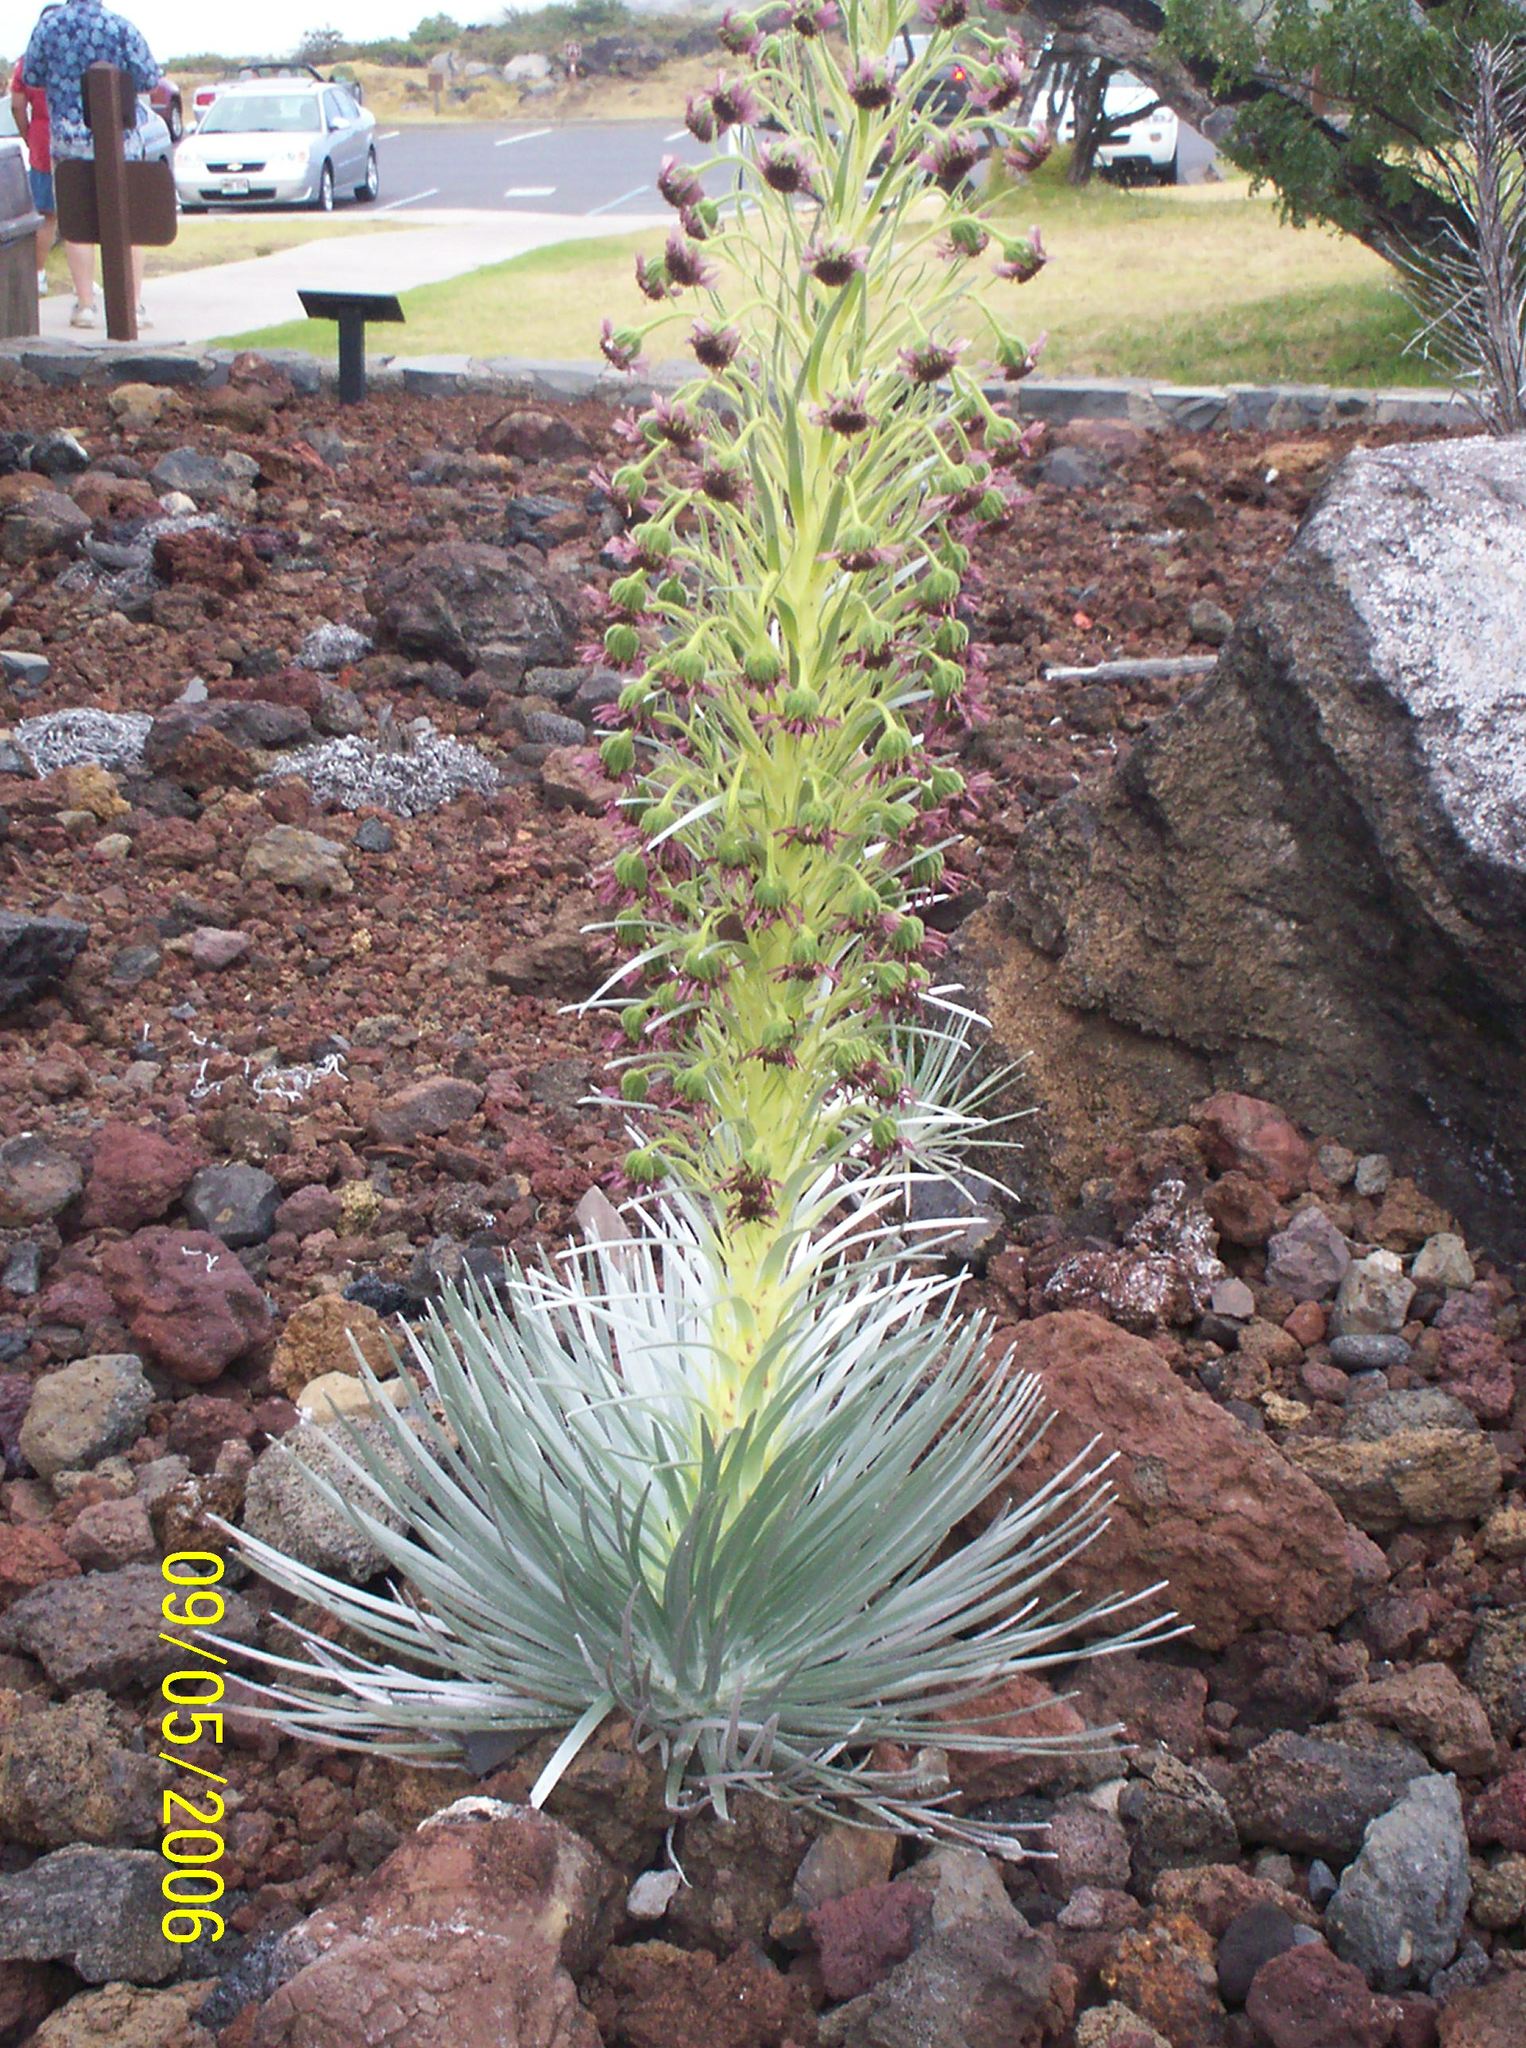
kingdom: Plantae
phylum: Tracheophyta
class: Magnoliopsida
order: Asterales
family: Asteraceae
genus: Argyroxiphium
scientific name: Argyroxiphium sandwicense
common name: Silversword
